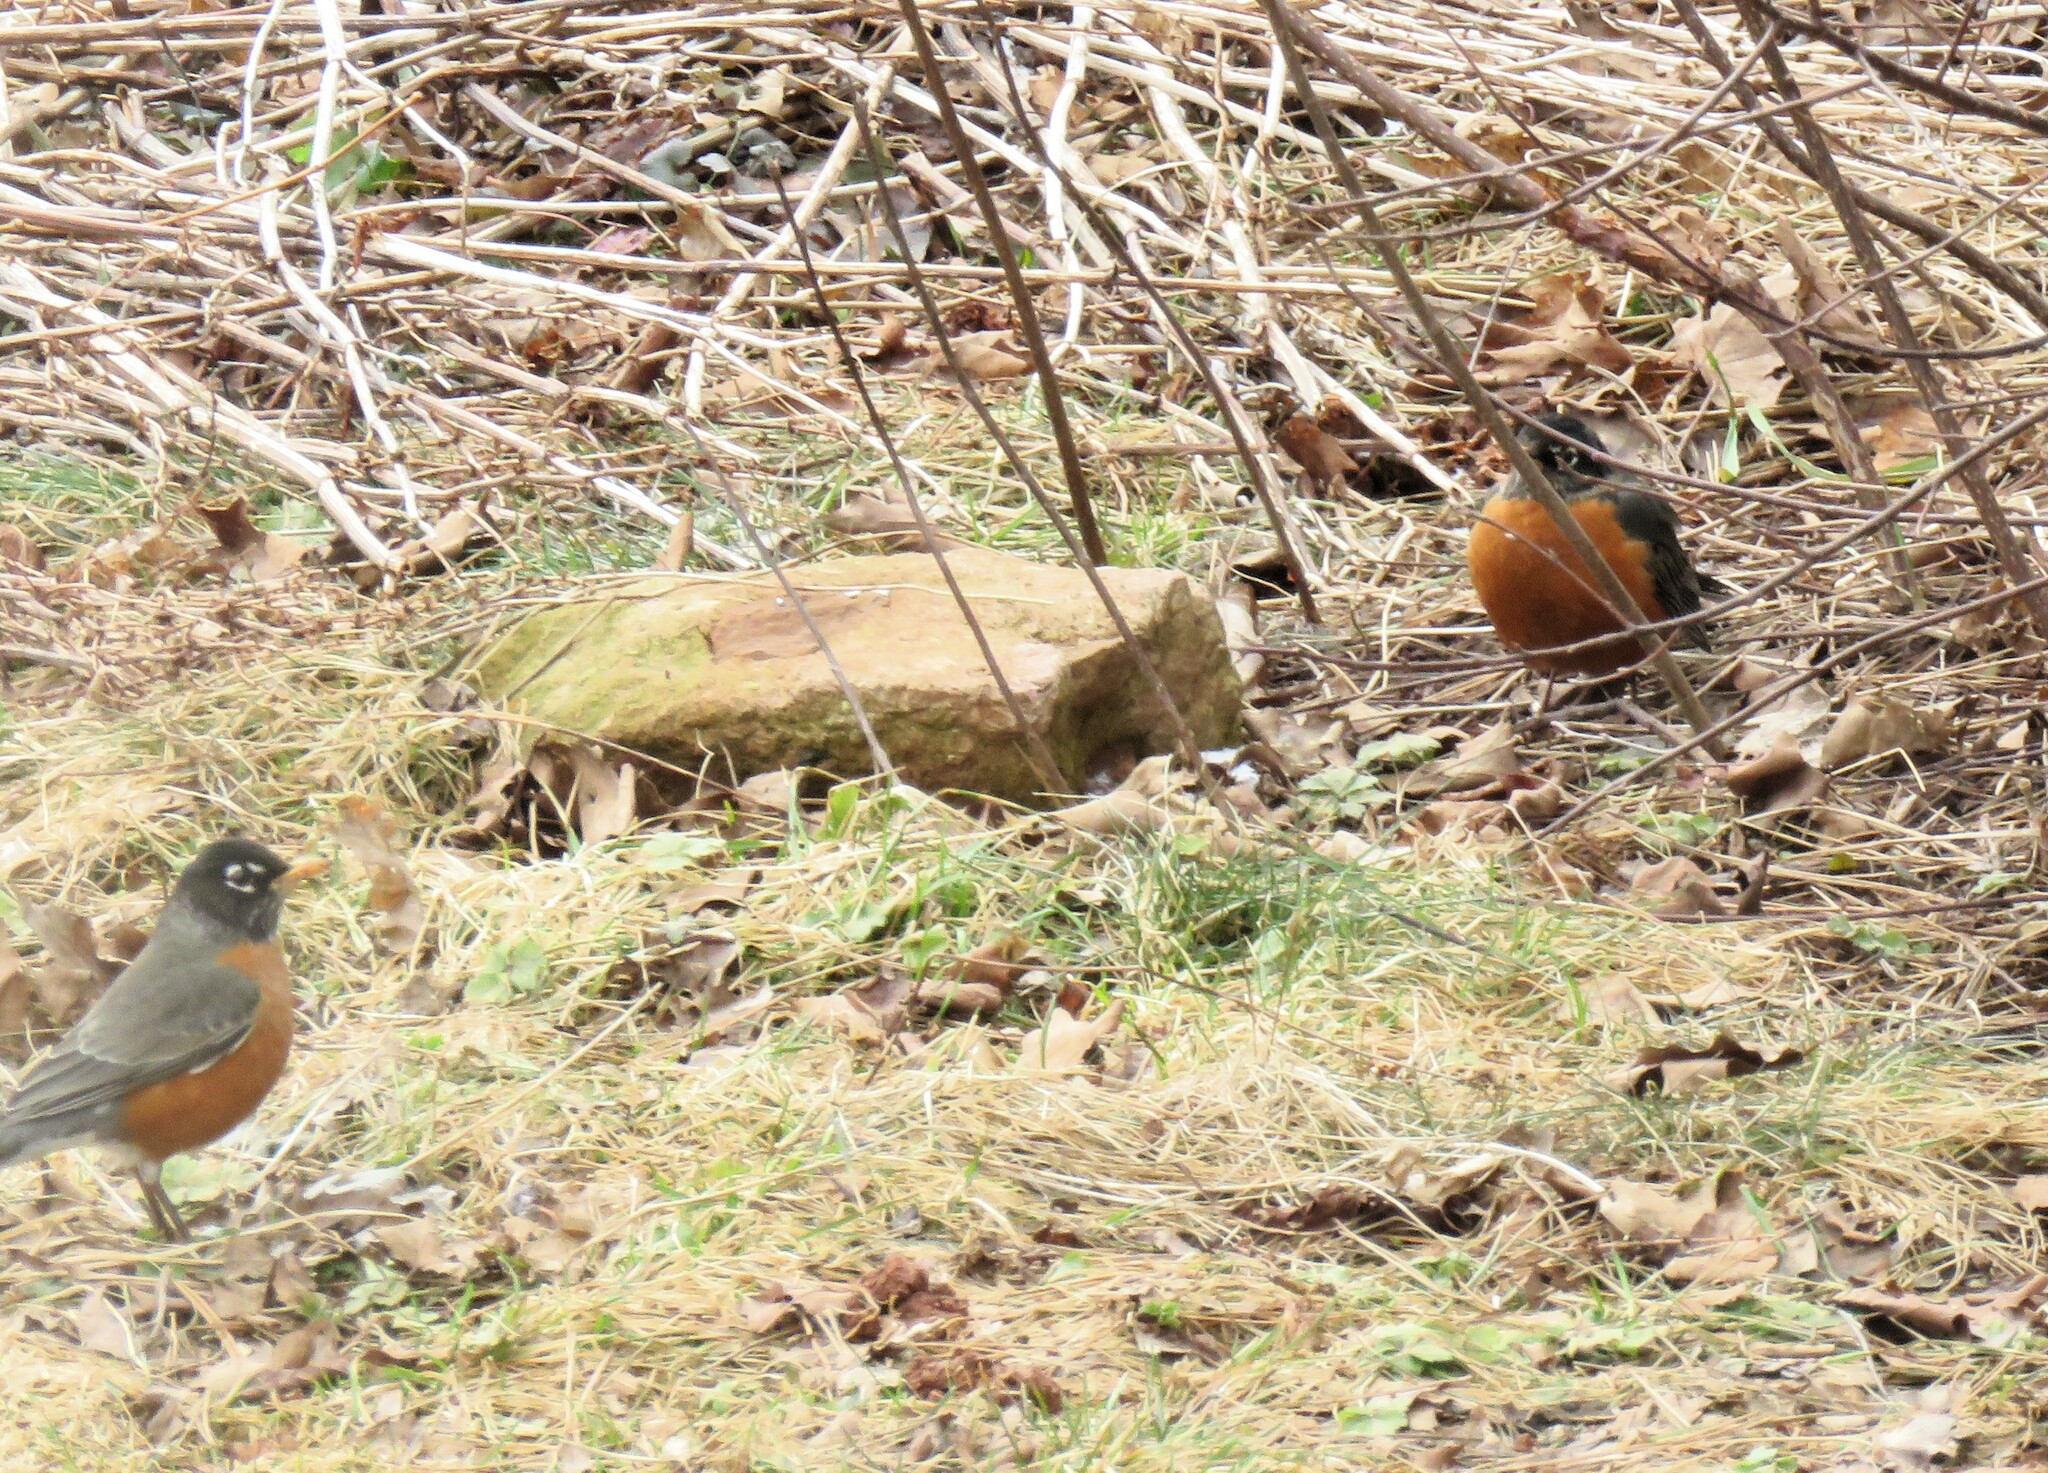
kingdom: Animalia
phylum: Chordata
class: Aves
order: Passeriformes
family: Turdidae
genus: Turdus
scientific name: Turdus migratorius
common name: American robin
